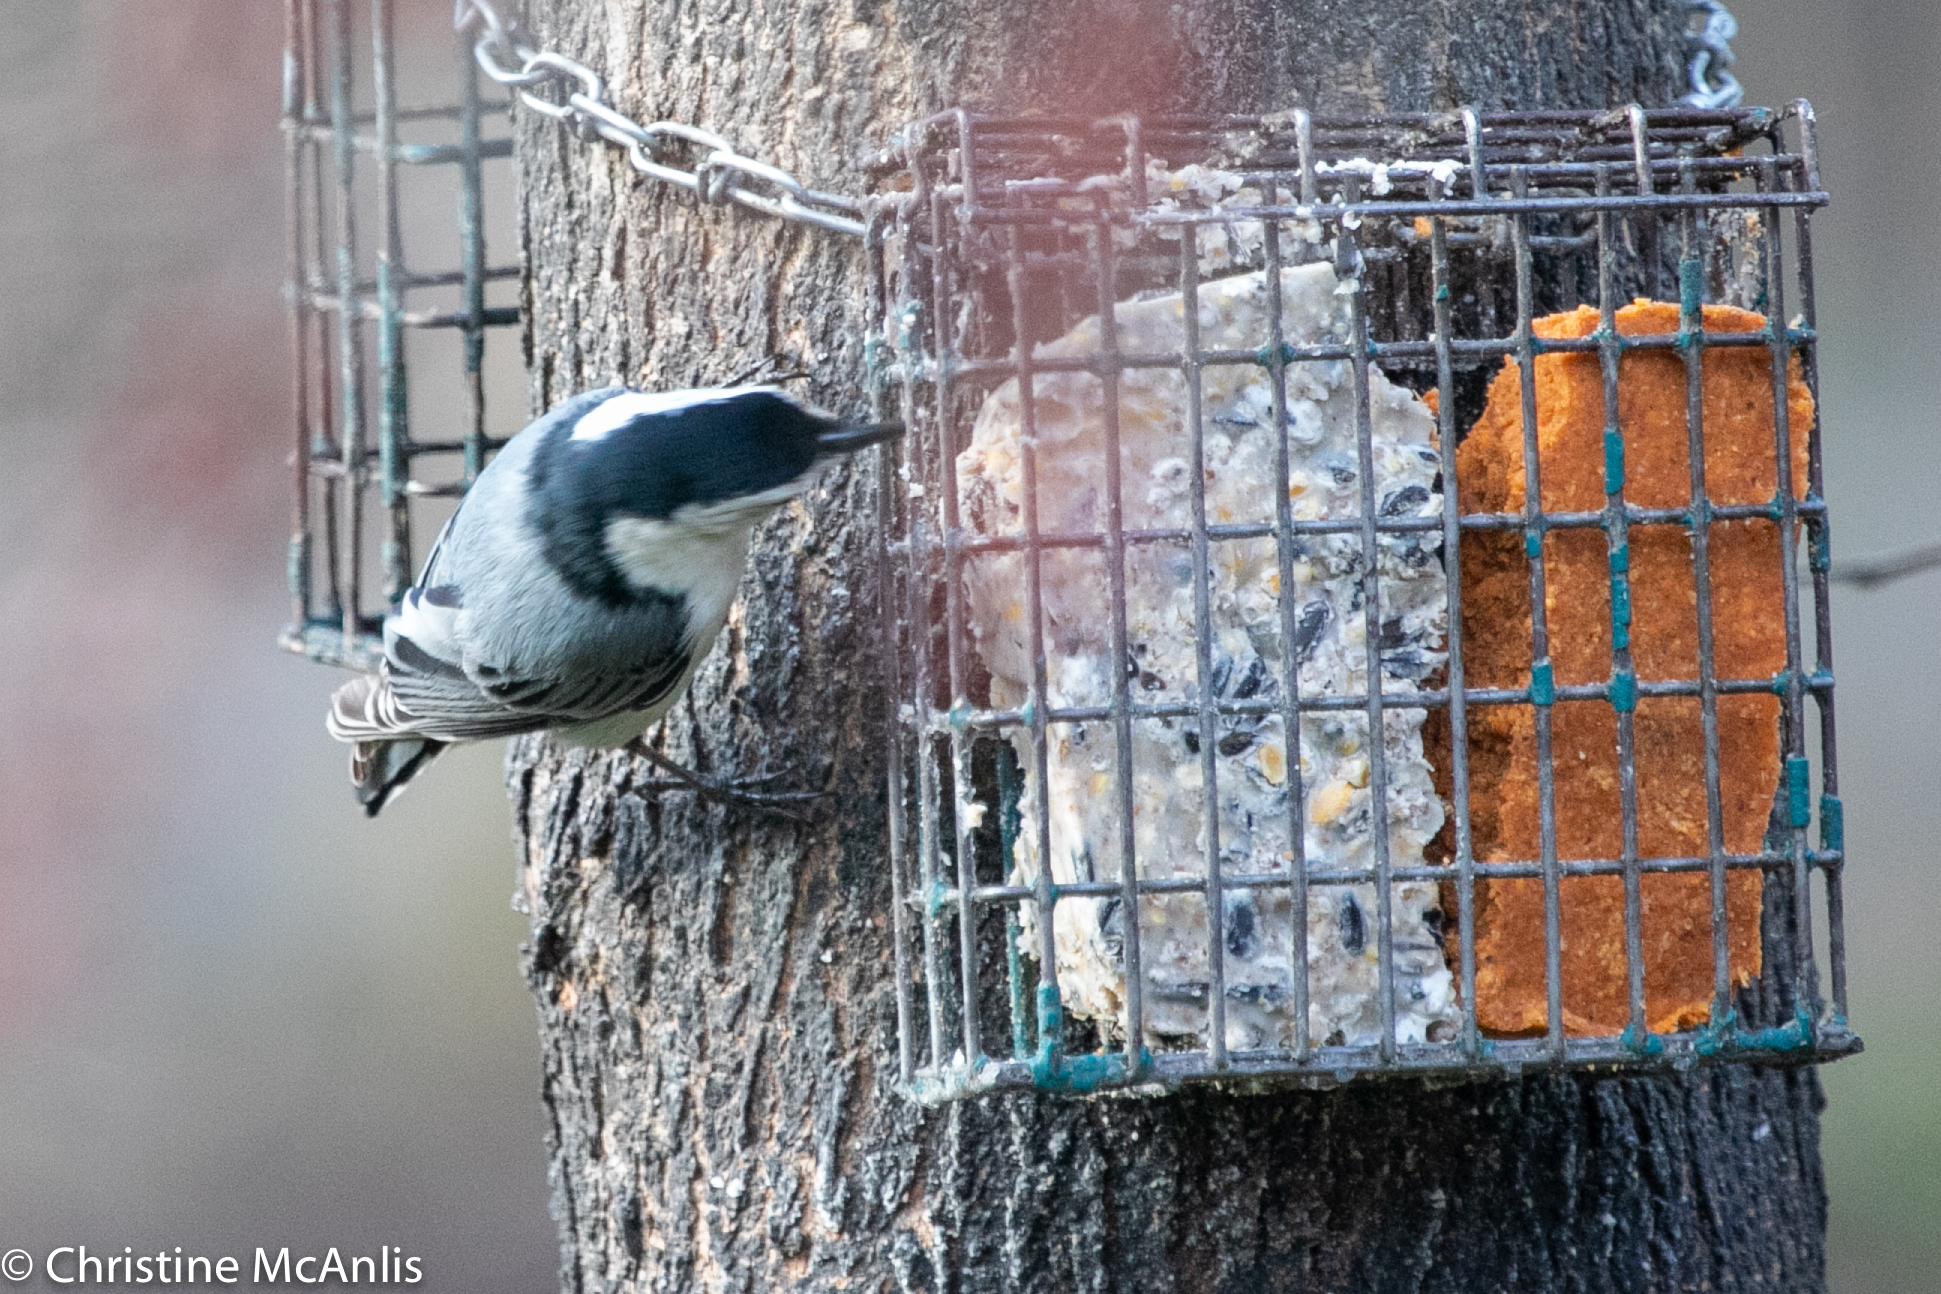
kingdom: Animalia
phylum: Chordata
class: Aves
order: Passeriformes
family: Sittidae
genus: Sitta
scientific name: Sitta carolinensis
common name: White-breasted nuthatch
